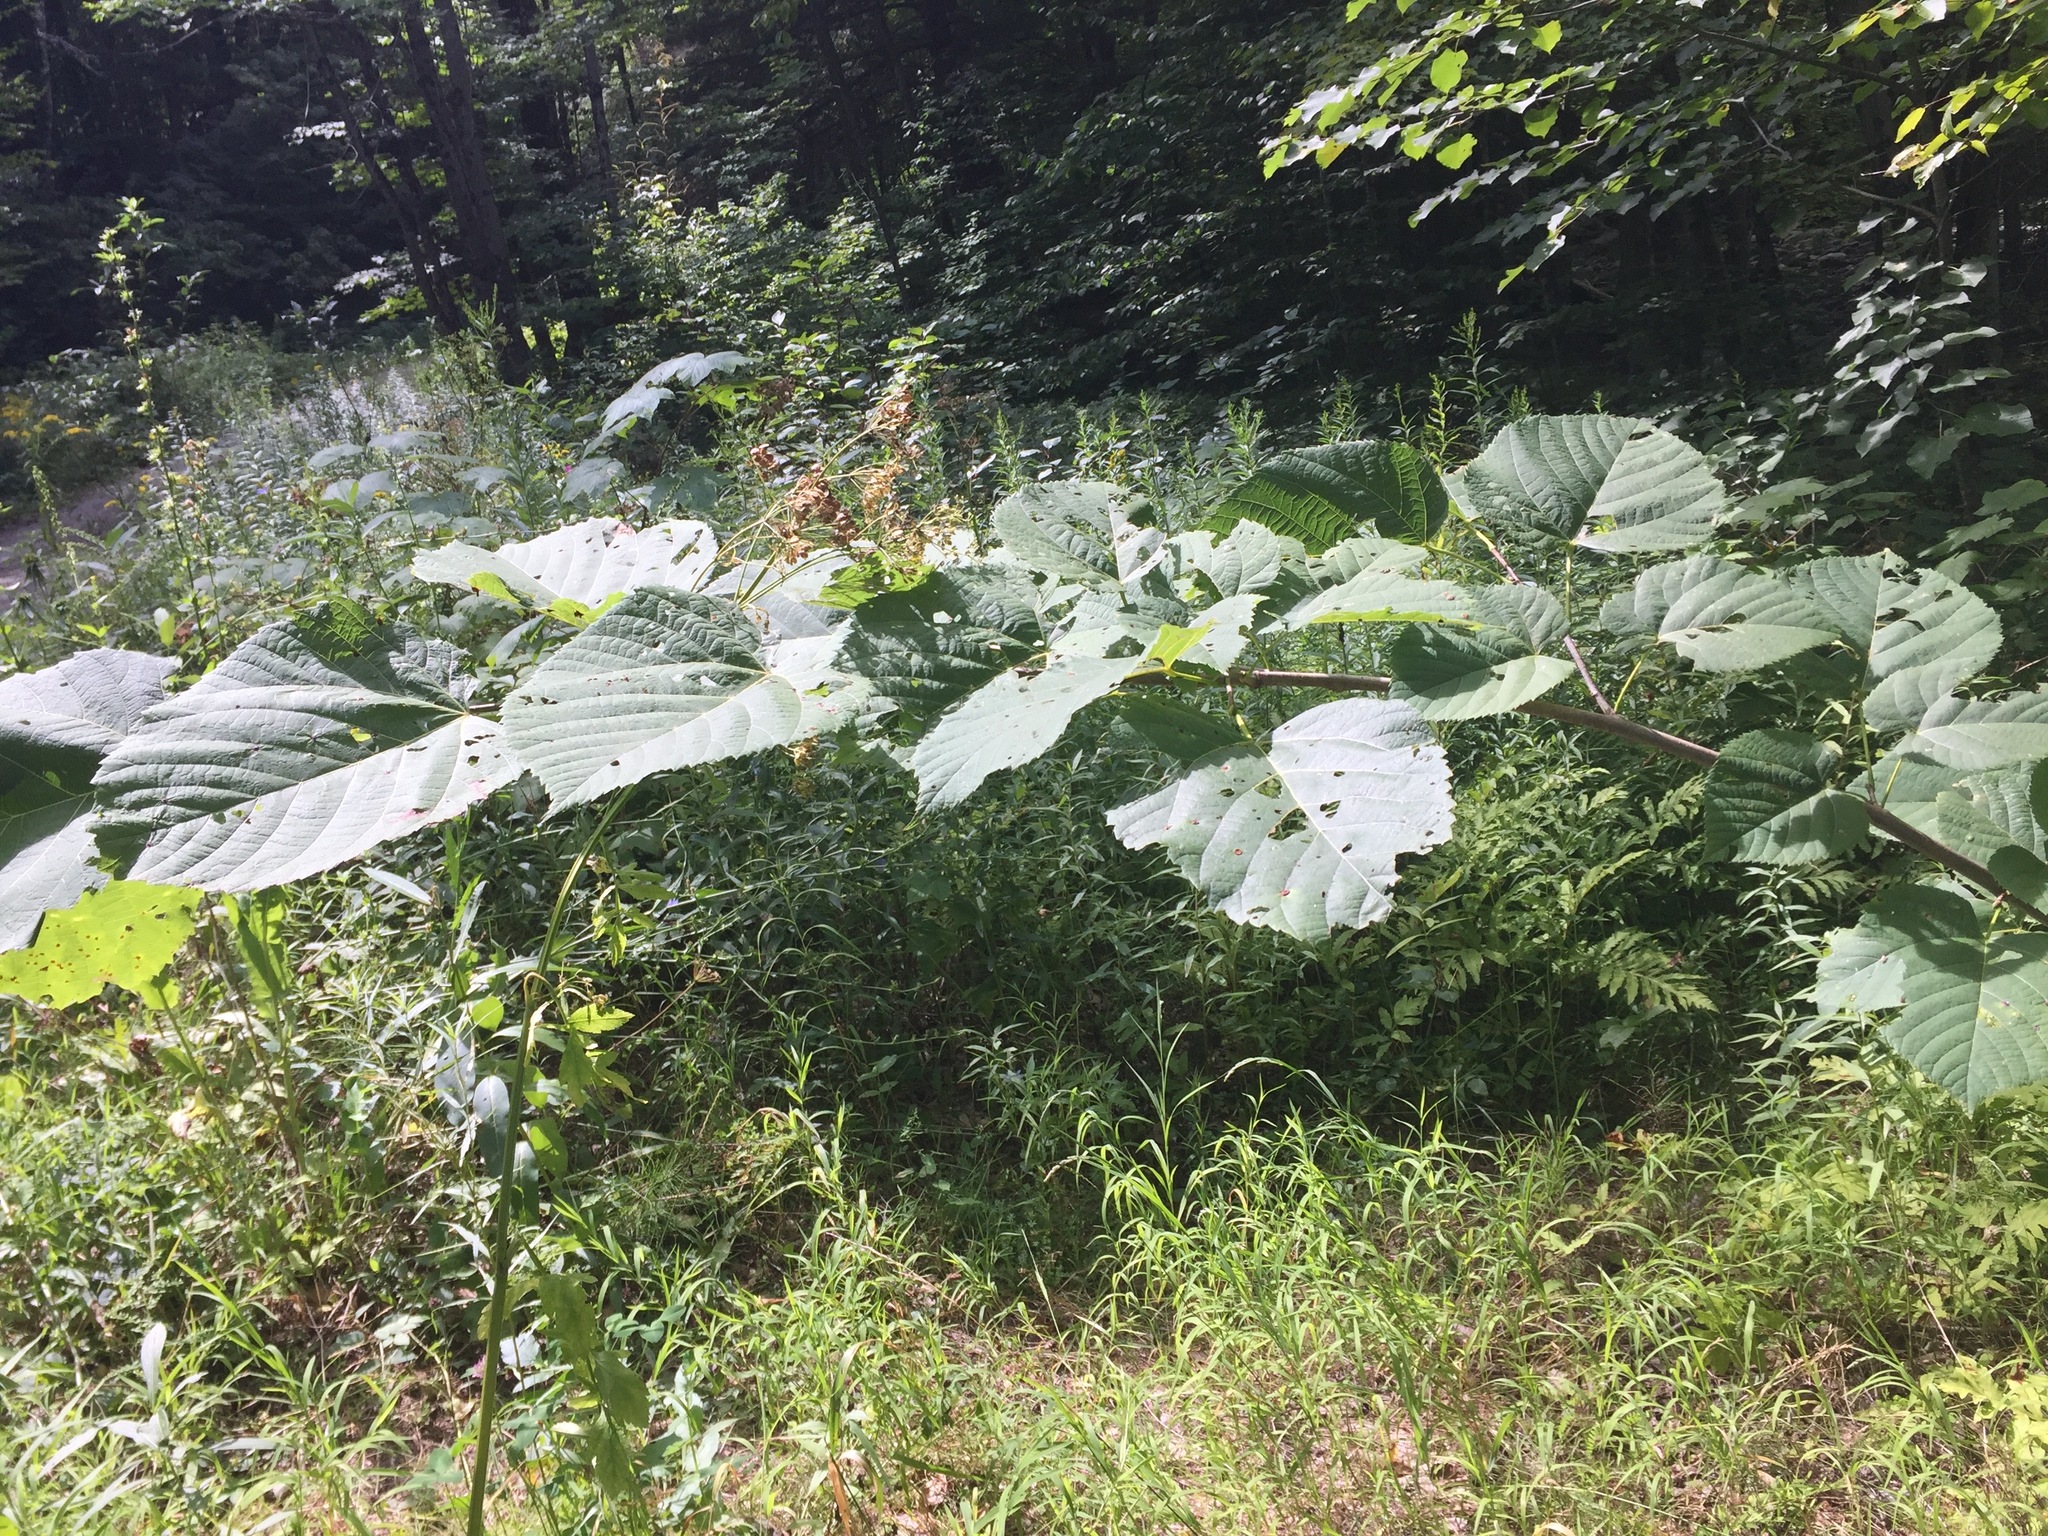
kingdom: Plantae
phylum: Tracheophyta
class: Magnoliopsida
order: Malvales
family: Malvaceae
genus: Tilia
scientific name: Tilia americana
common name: Basswood
